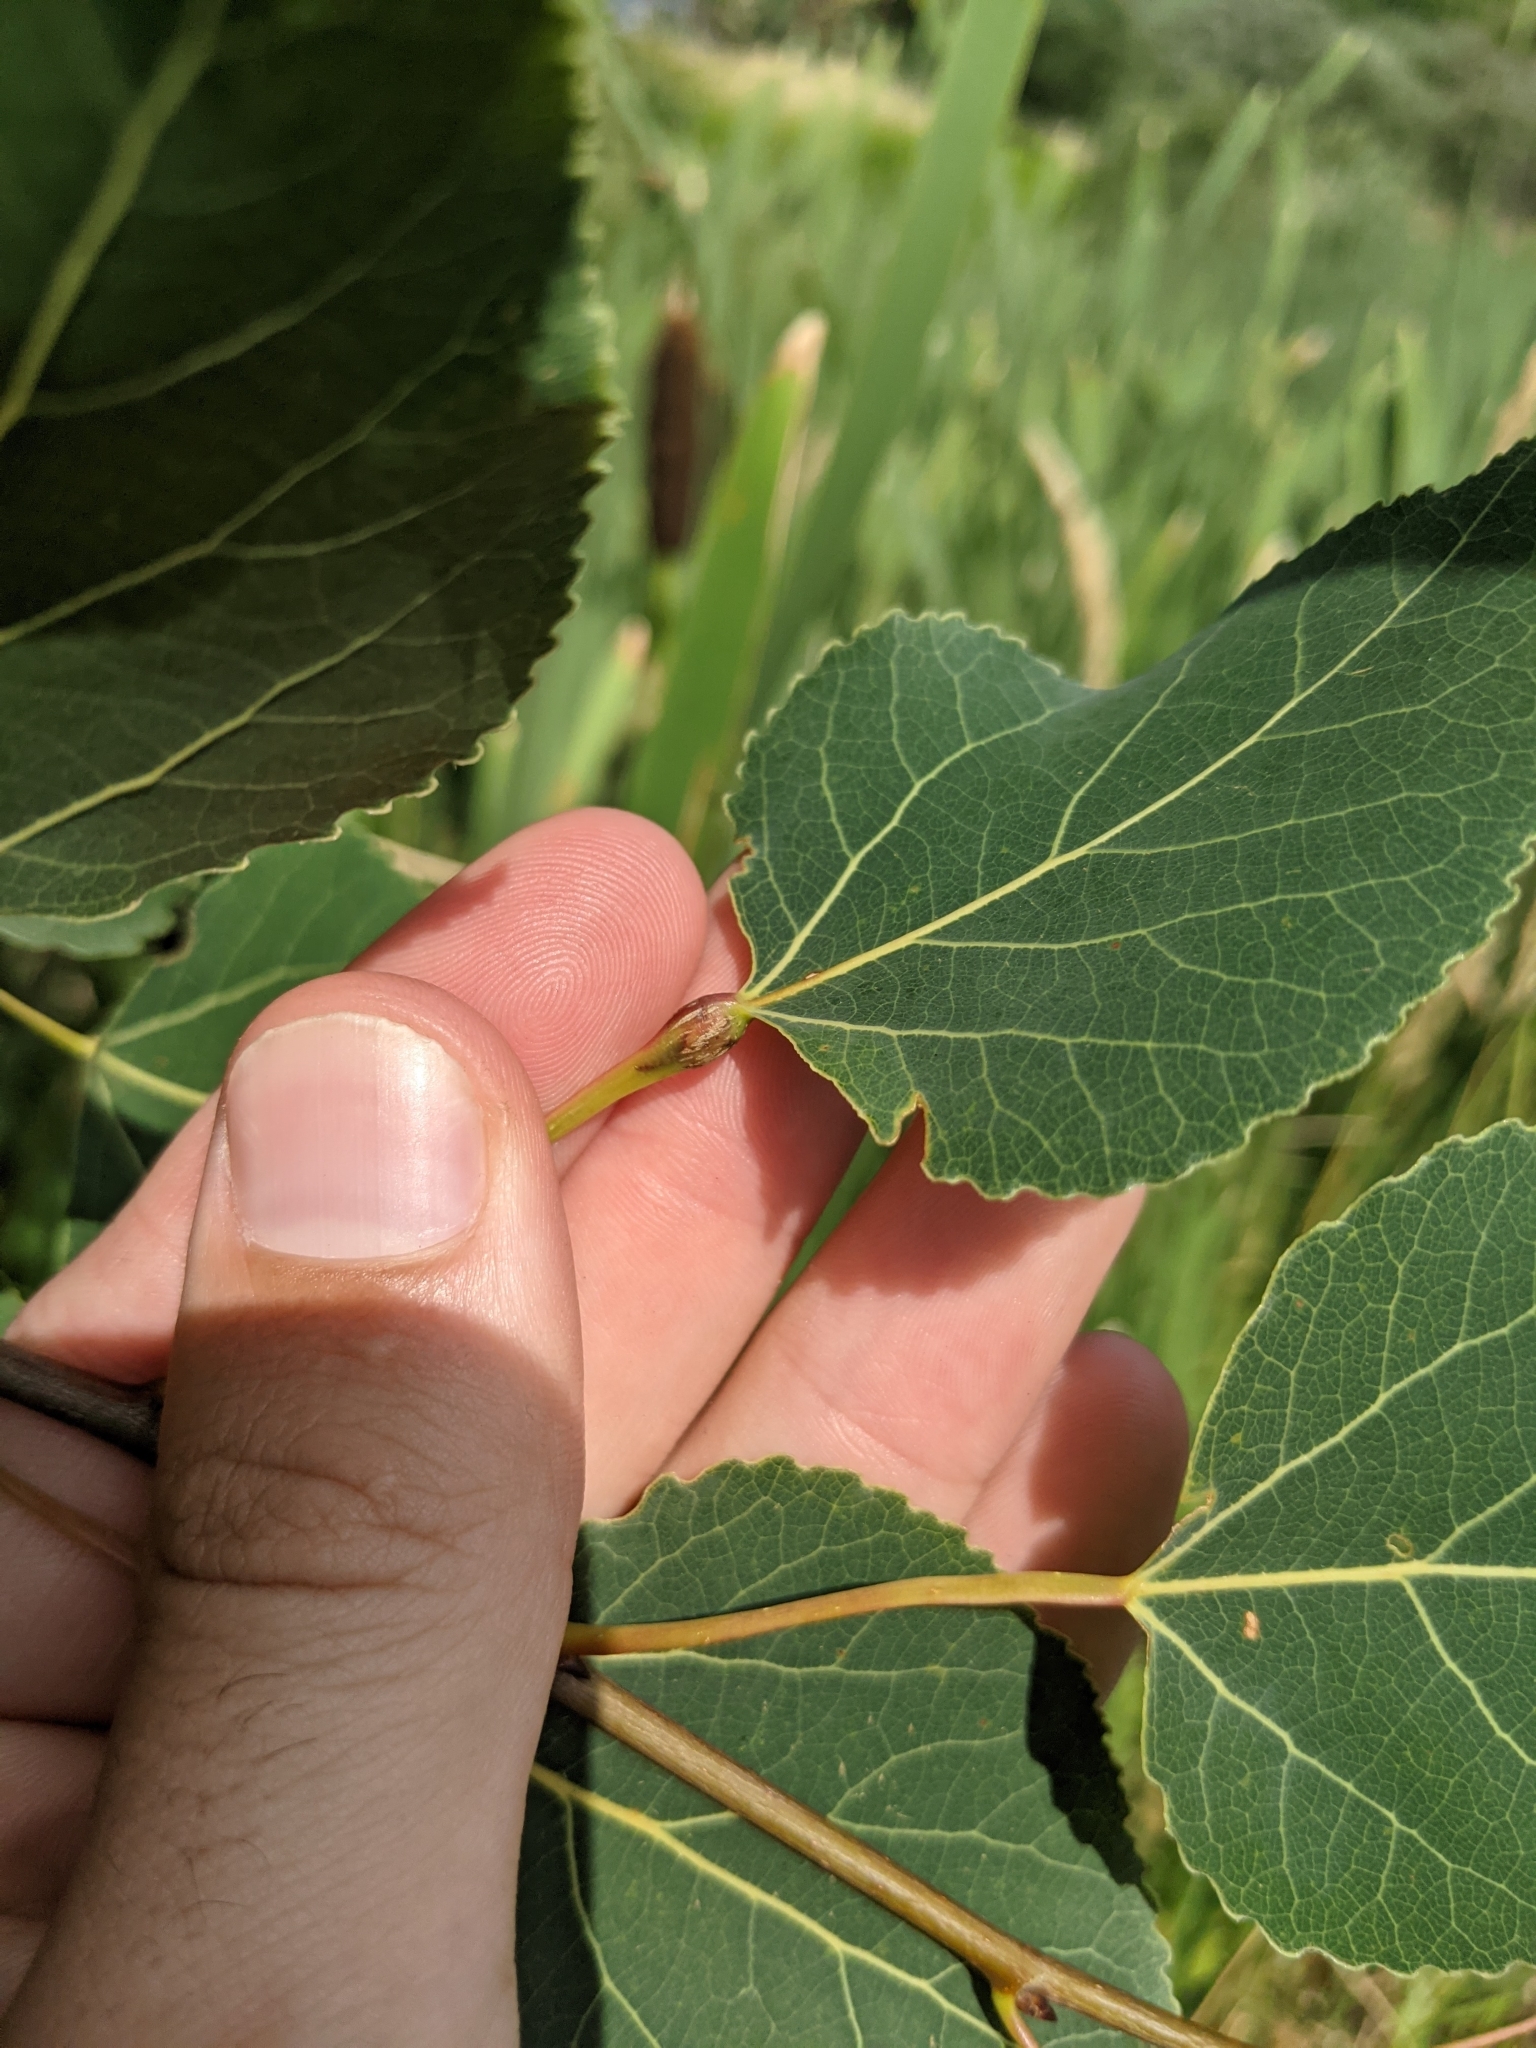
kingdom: Animalia
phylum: Arthropoda
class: Insecta
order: Lepidoptera
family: Nepticulidae
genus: Ectoedemia
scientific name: Ectoedemia populella
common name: Aspen petiole gall moth
